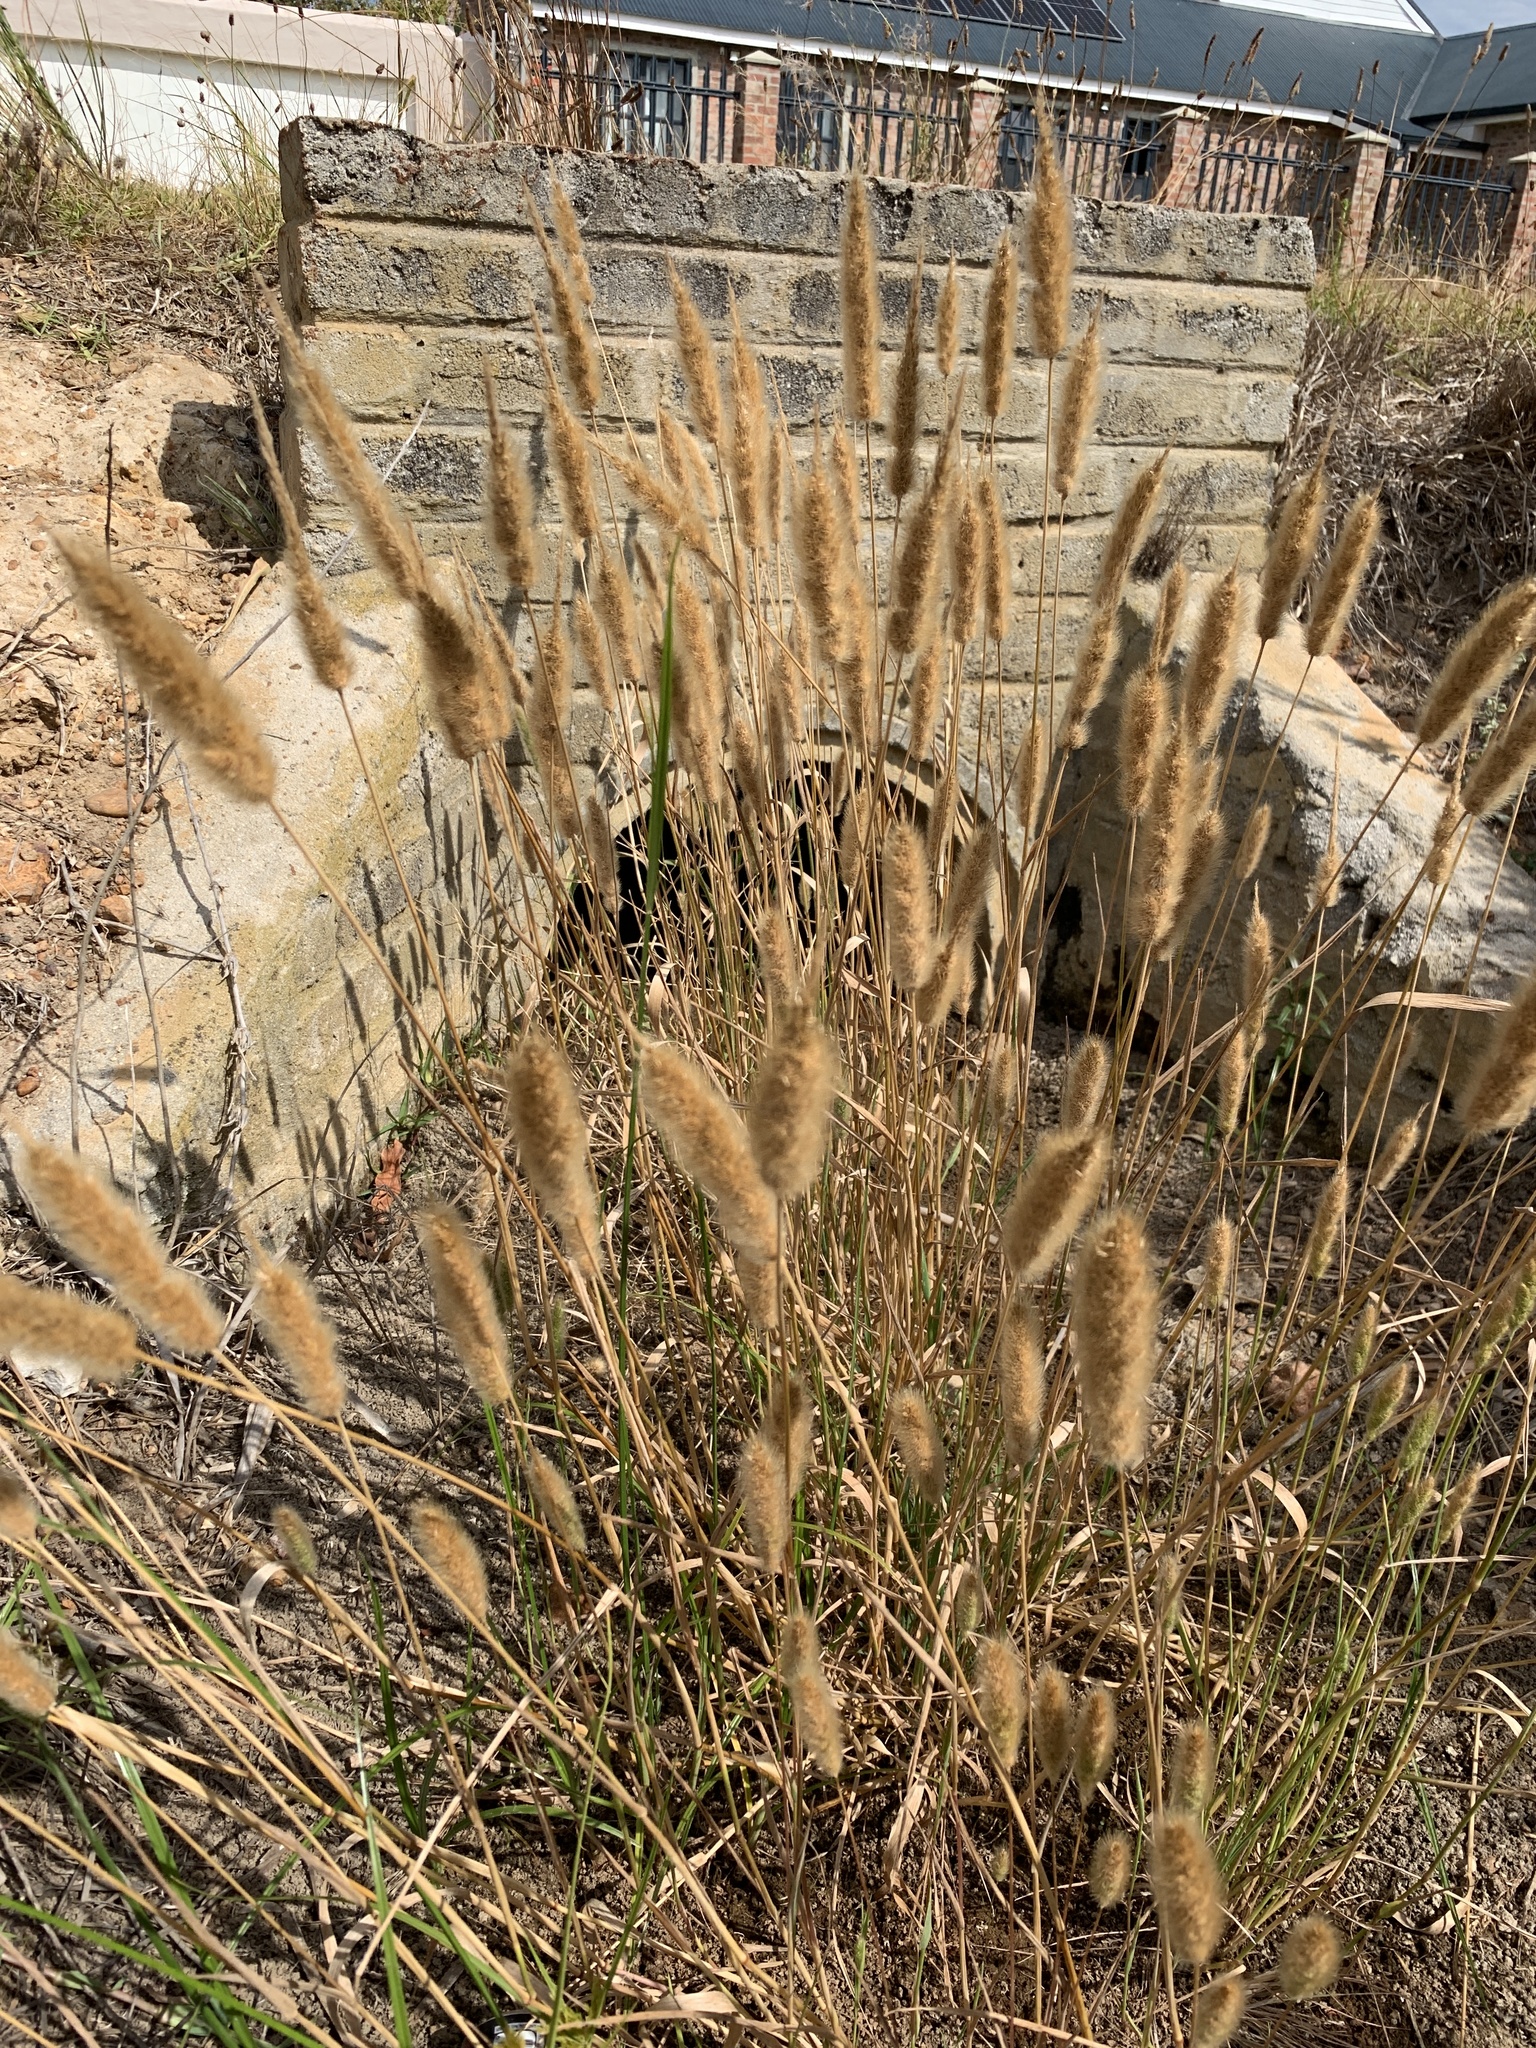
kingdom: Plantae
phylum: Tracheophyta
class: Liliopsida
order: Poales
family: Poaceae
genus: Polypogon
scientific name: Polypogon monspeliensis
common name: Annual rabbitsfoot grass
